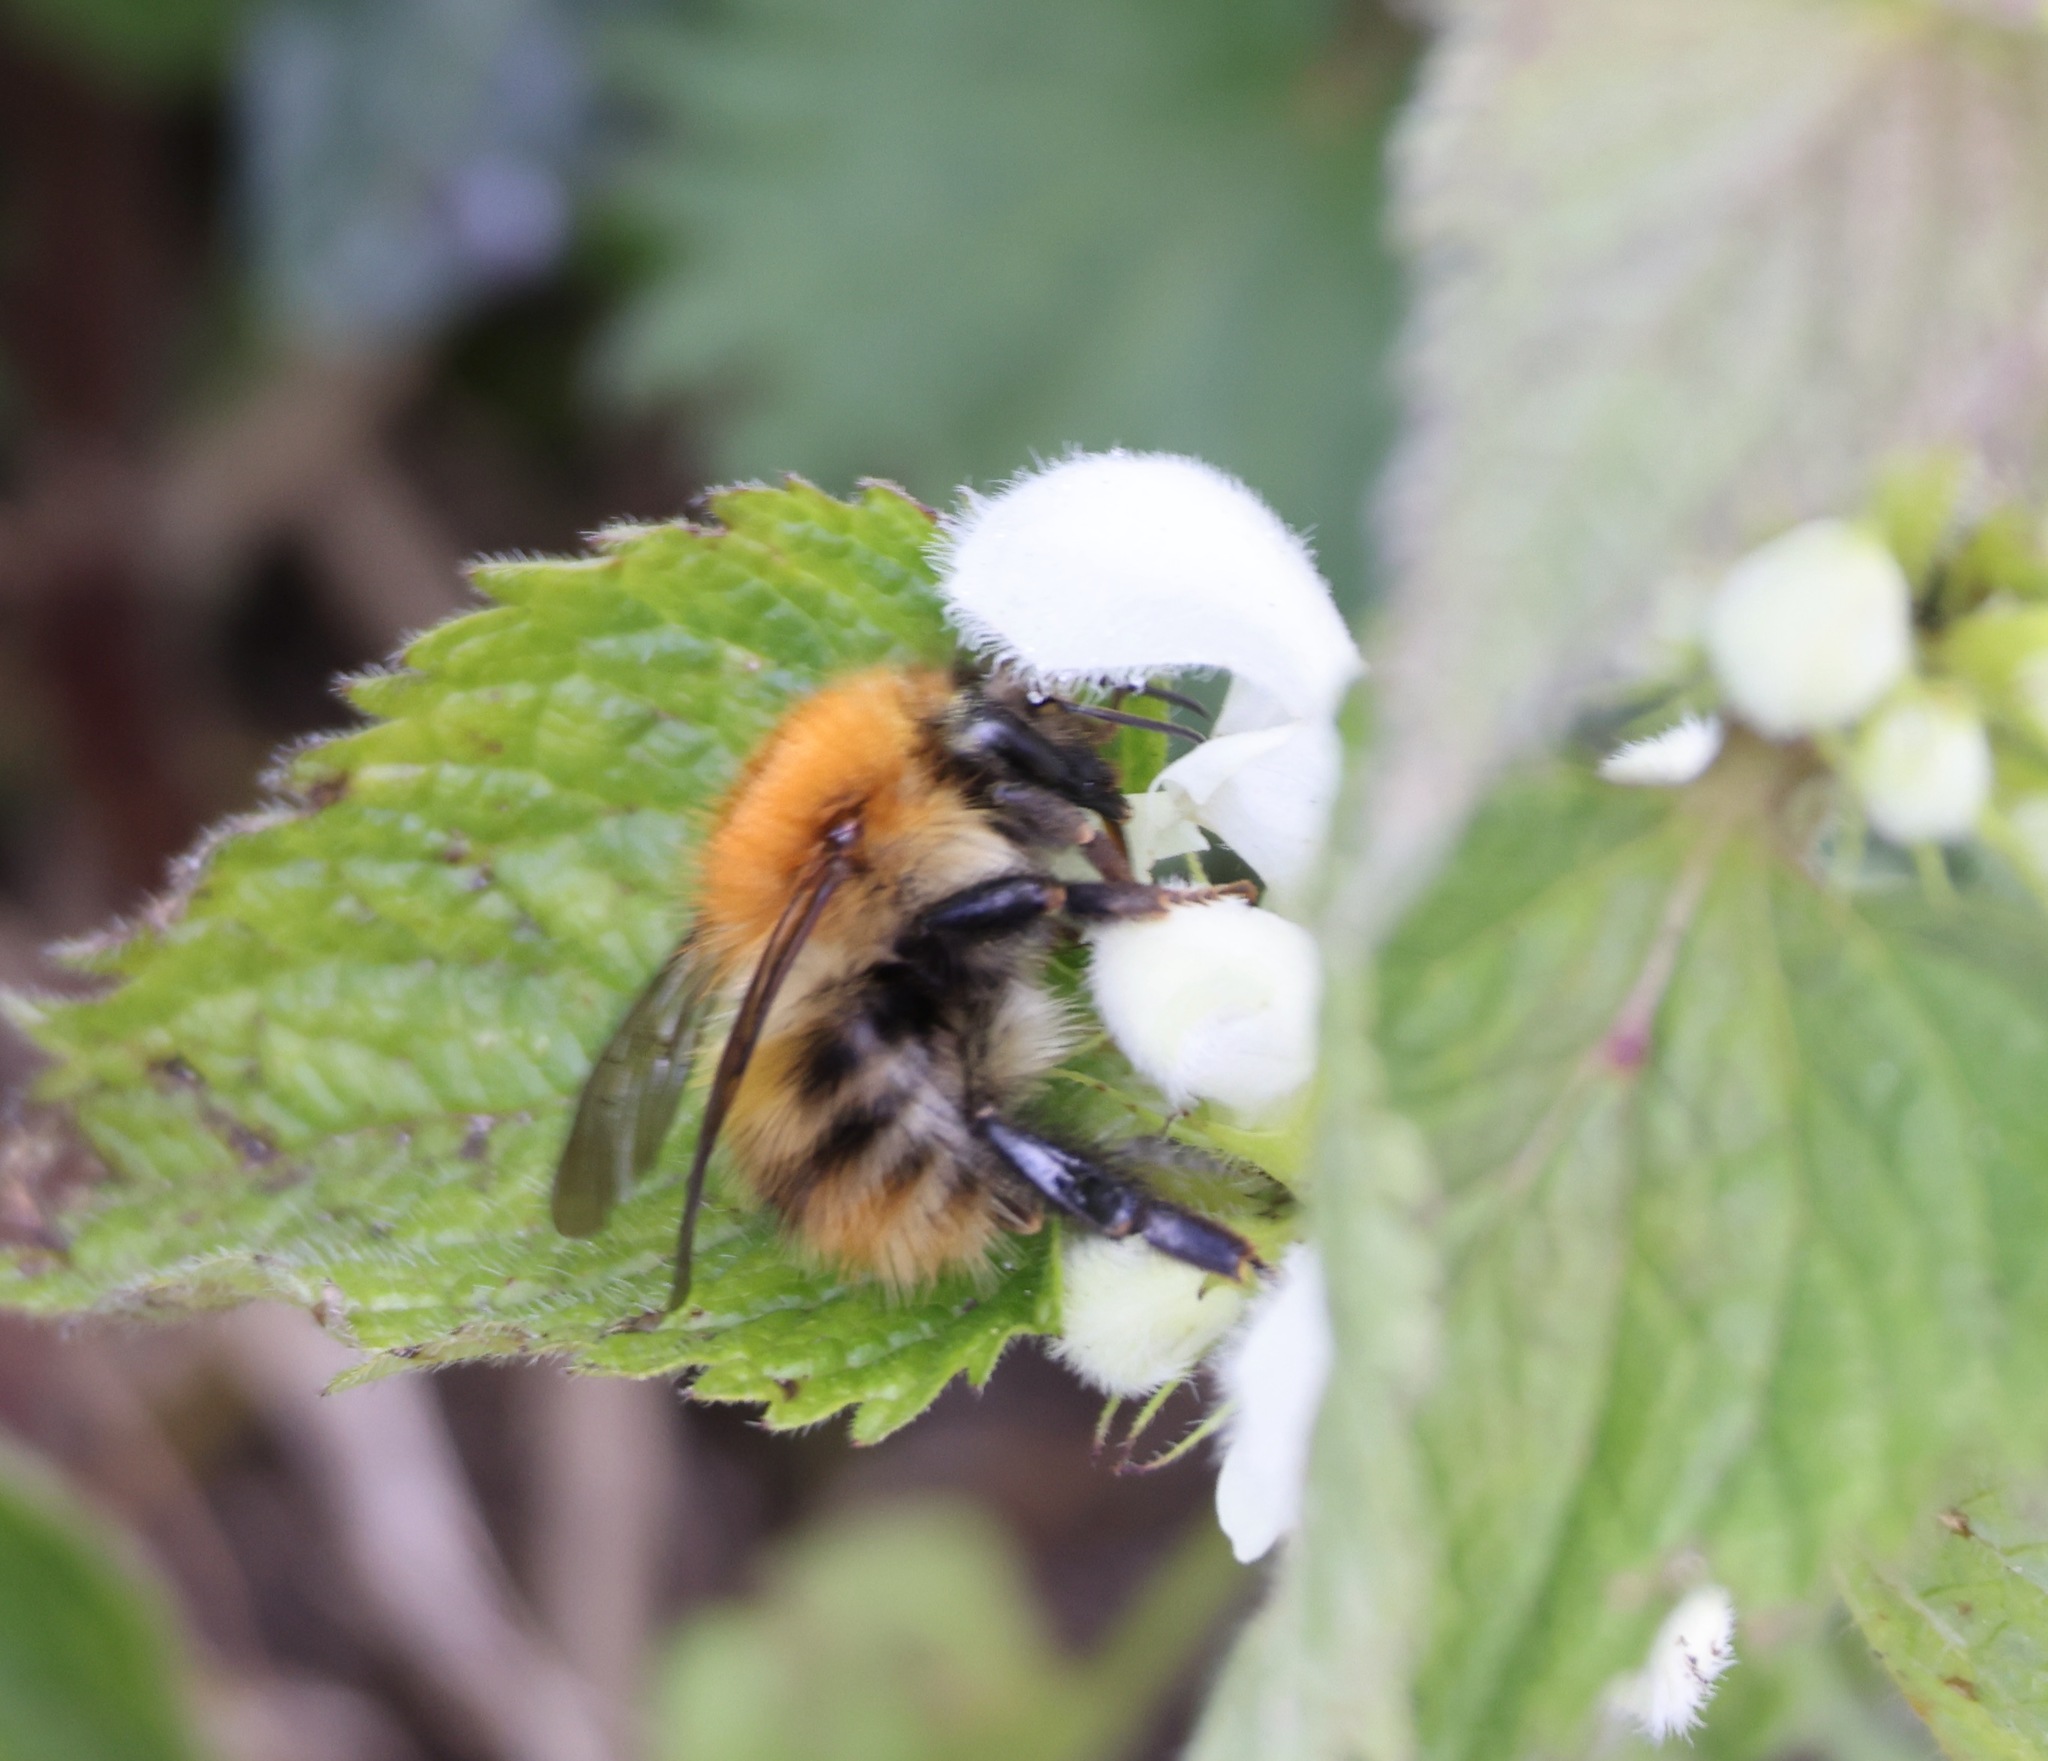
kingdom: Animalia
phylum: Arthropoda
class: Insecta
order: Hymenoptera
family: Apidae
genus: Bombus
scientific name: Bombus pascuorum
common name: Common carder bee
